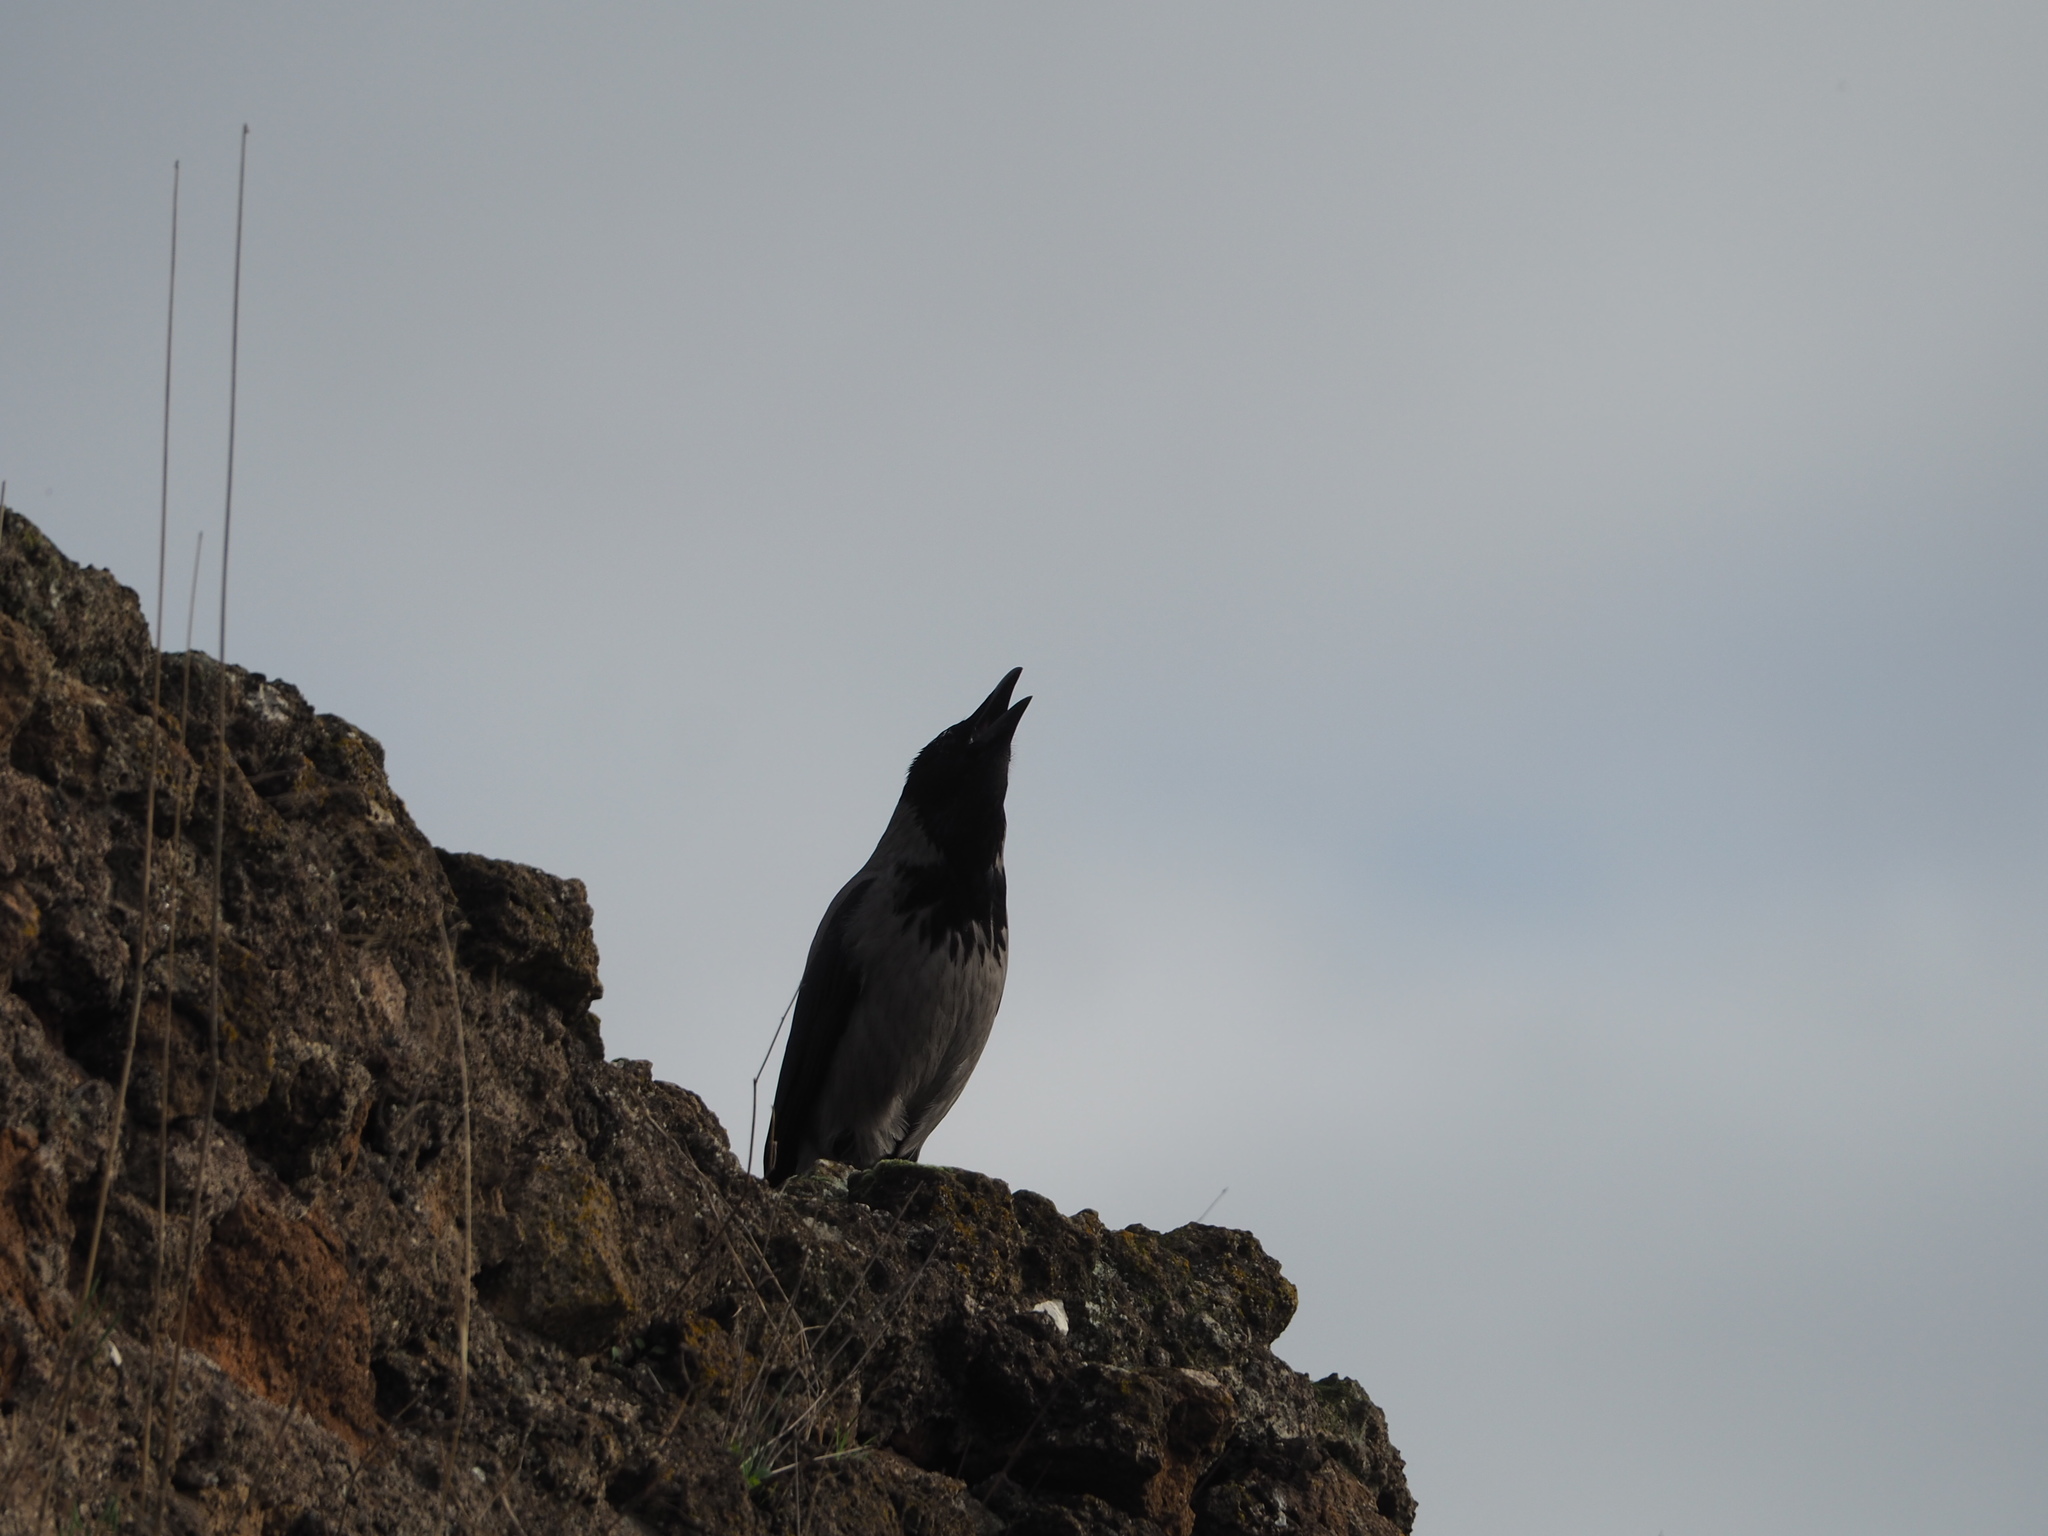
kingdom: Animalia
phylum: Chordata
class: Aves
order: Passeriformes
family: Corvidae
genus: Corvus
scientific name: Corvus cornix
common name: Hooded crow
